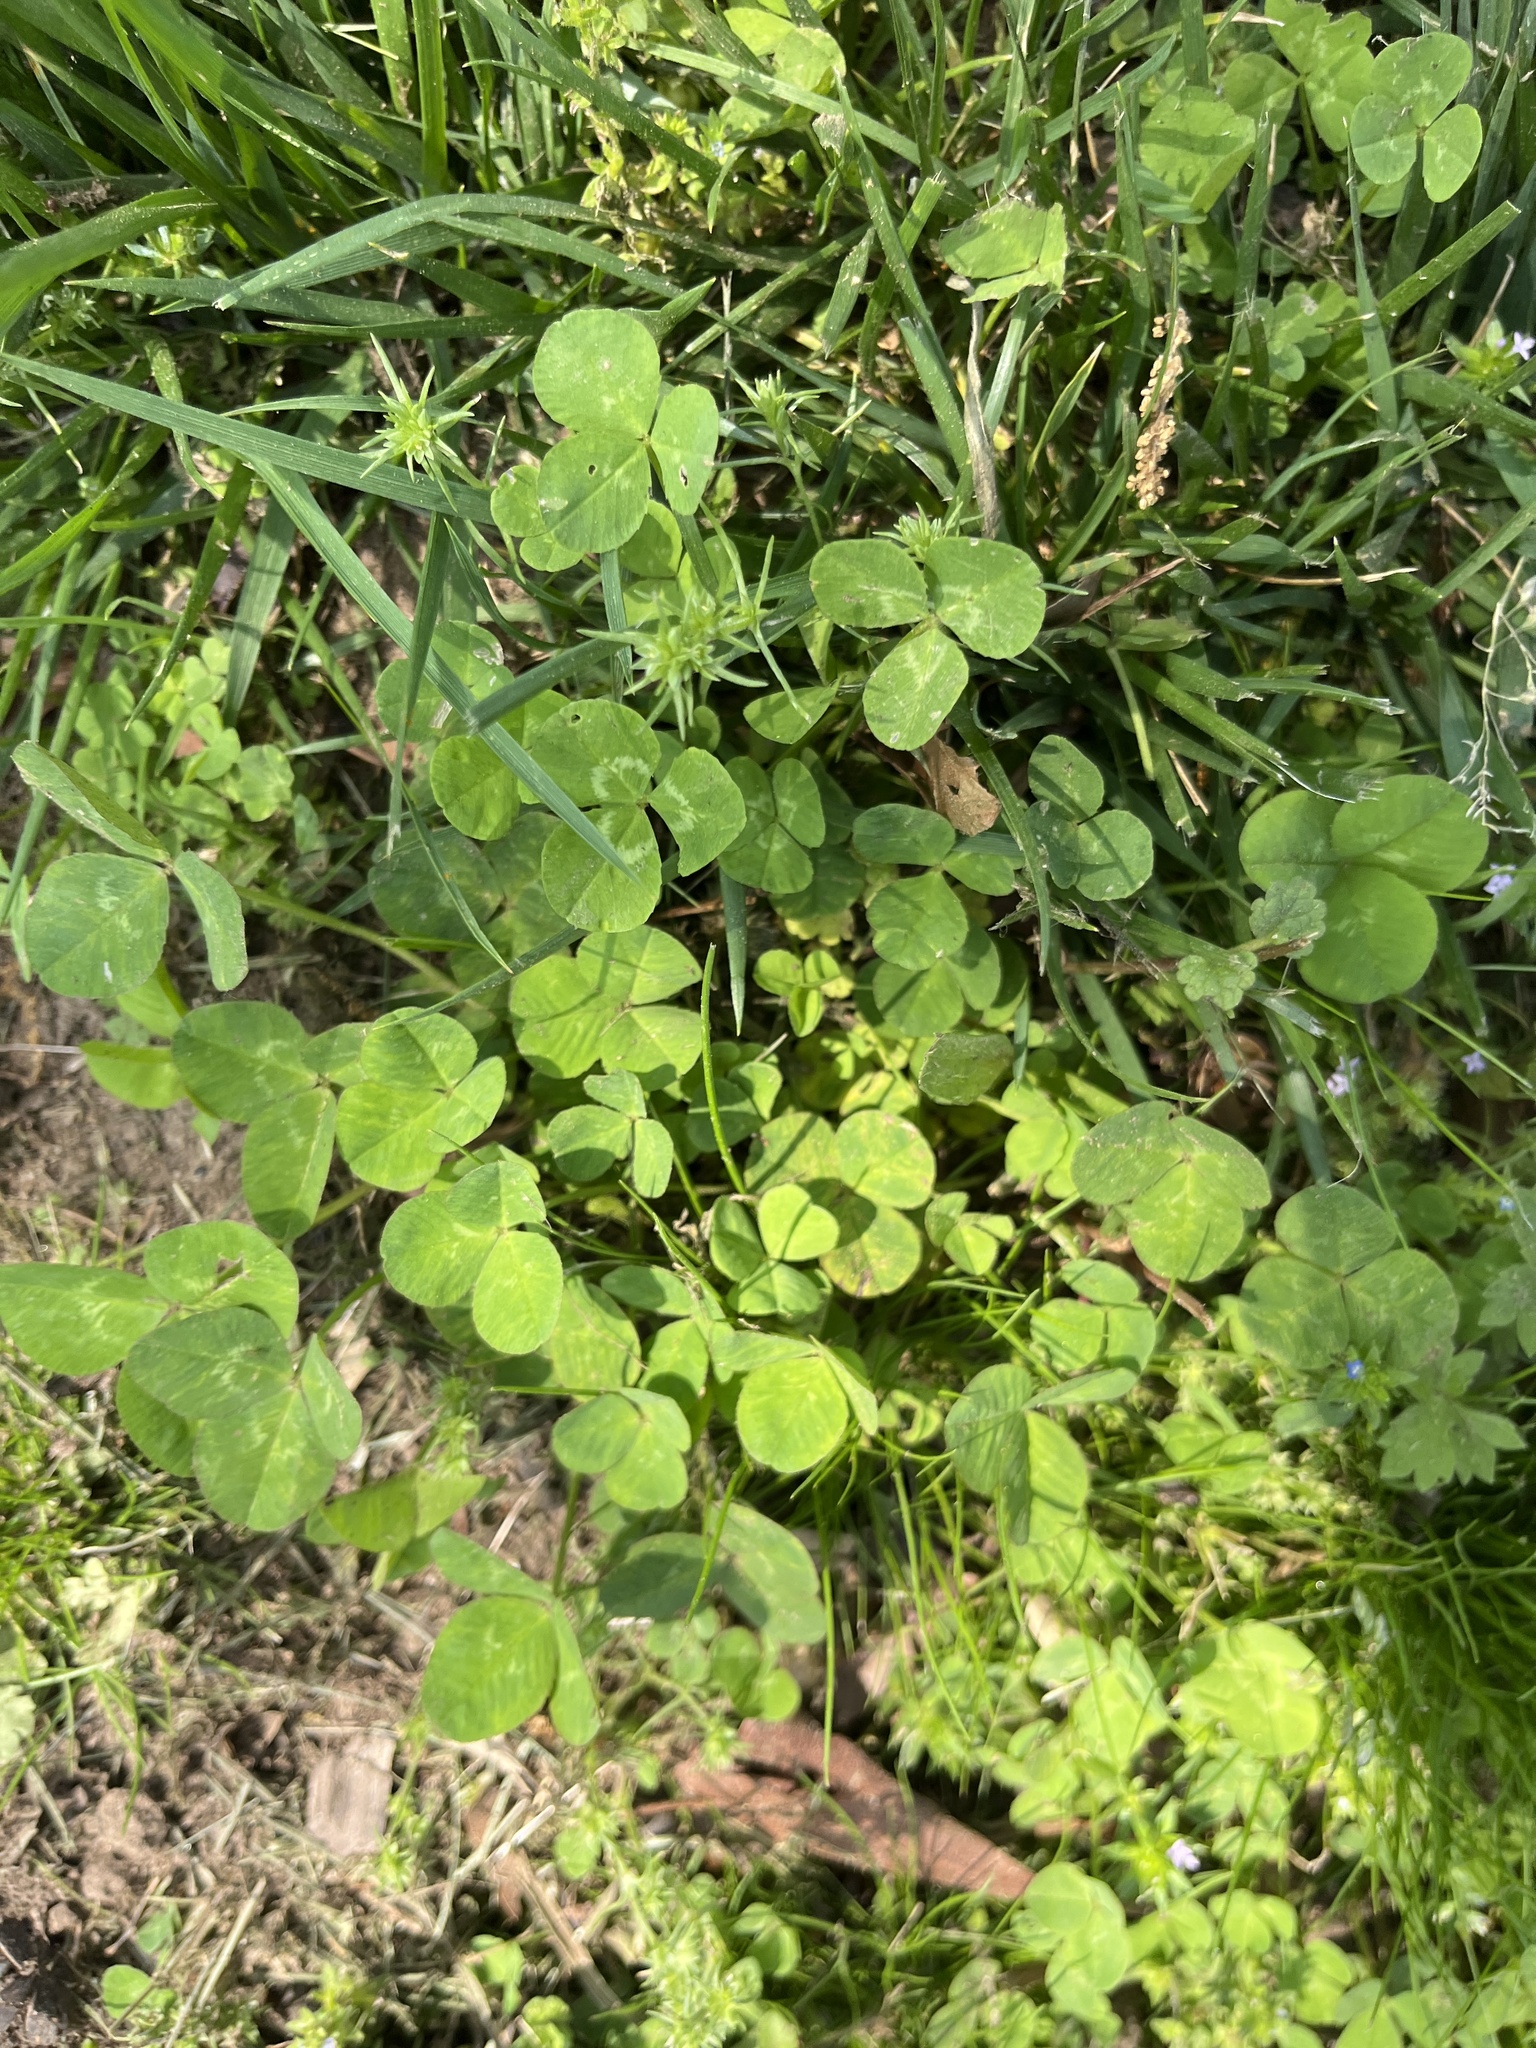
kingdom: Plantae
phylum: Tracheophyta
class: Magnoliopsida
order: Fabales
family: Fabaceae
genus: Trifolium
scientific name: Trifolium repens
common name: White clover
